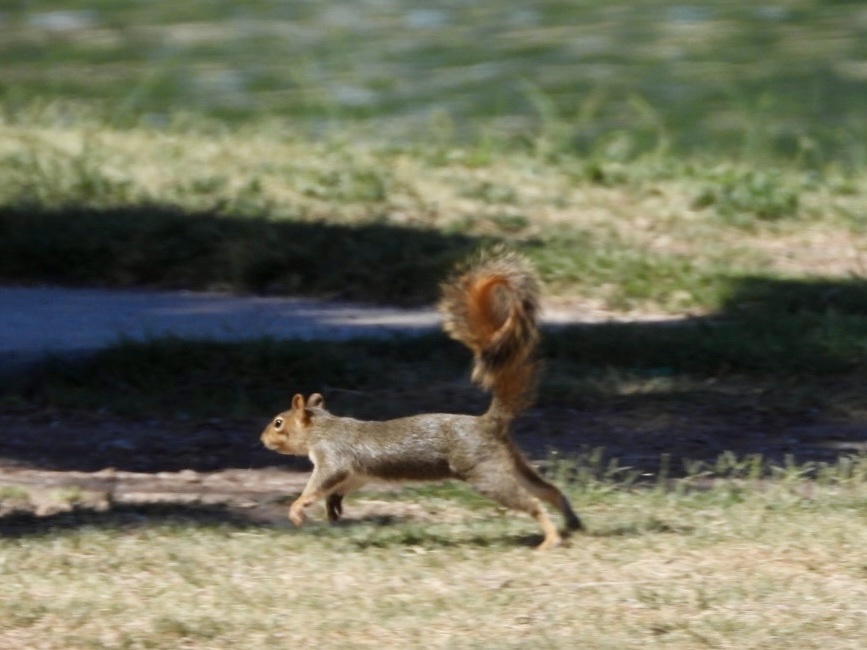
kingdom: Animalia
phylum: Chordata
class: Mammalia
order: Rodentia
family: Sciuridae
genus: Sciurus
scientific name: Sciurus niger
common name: Fox squirrel
